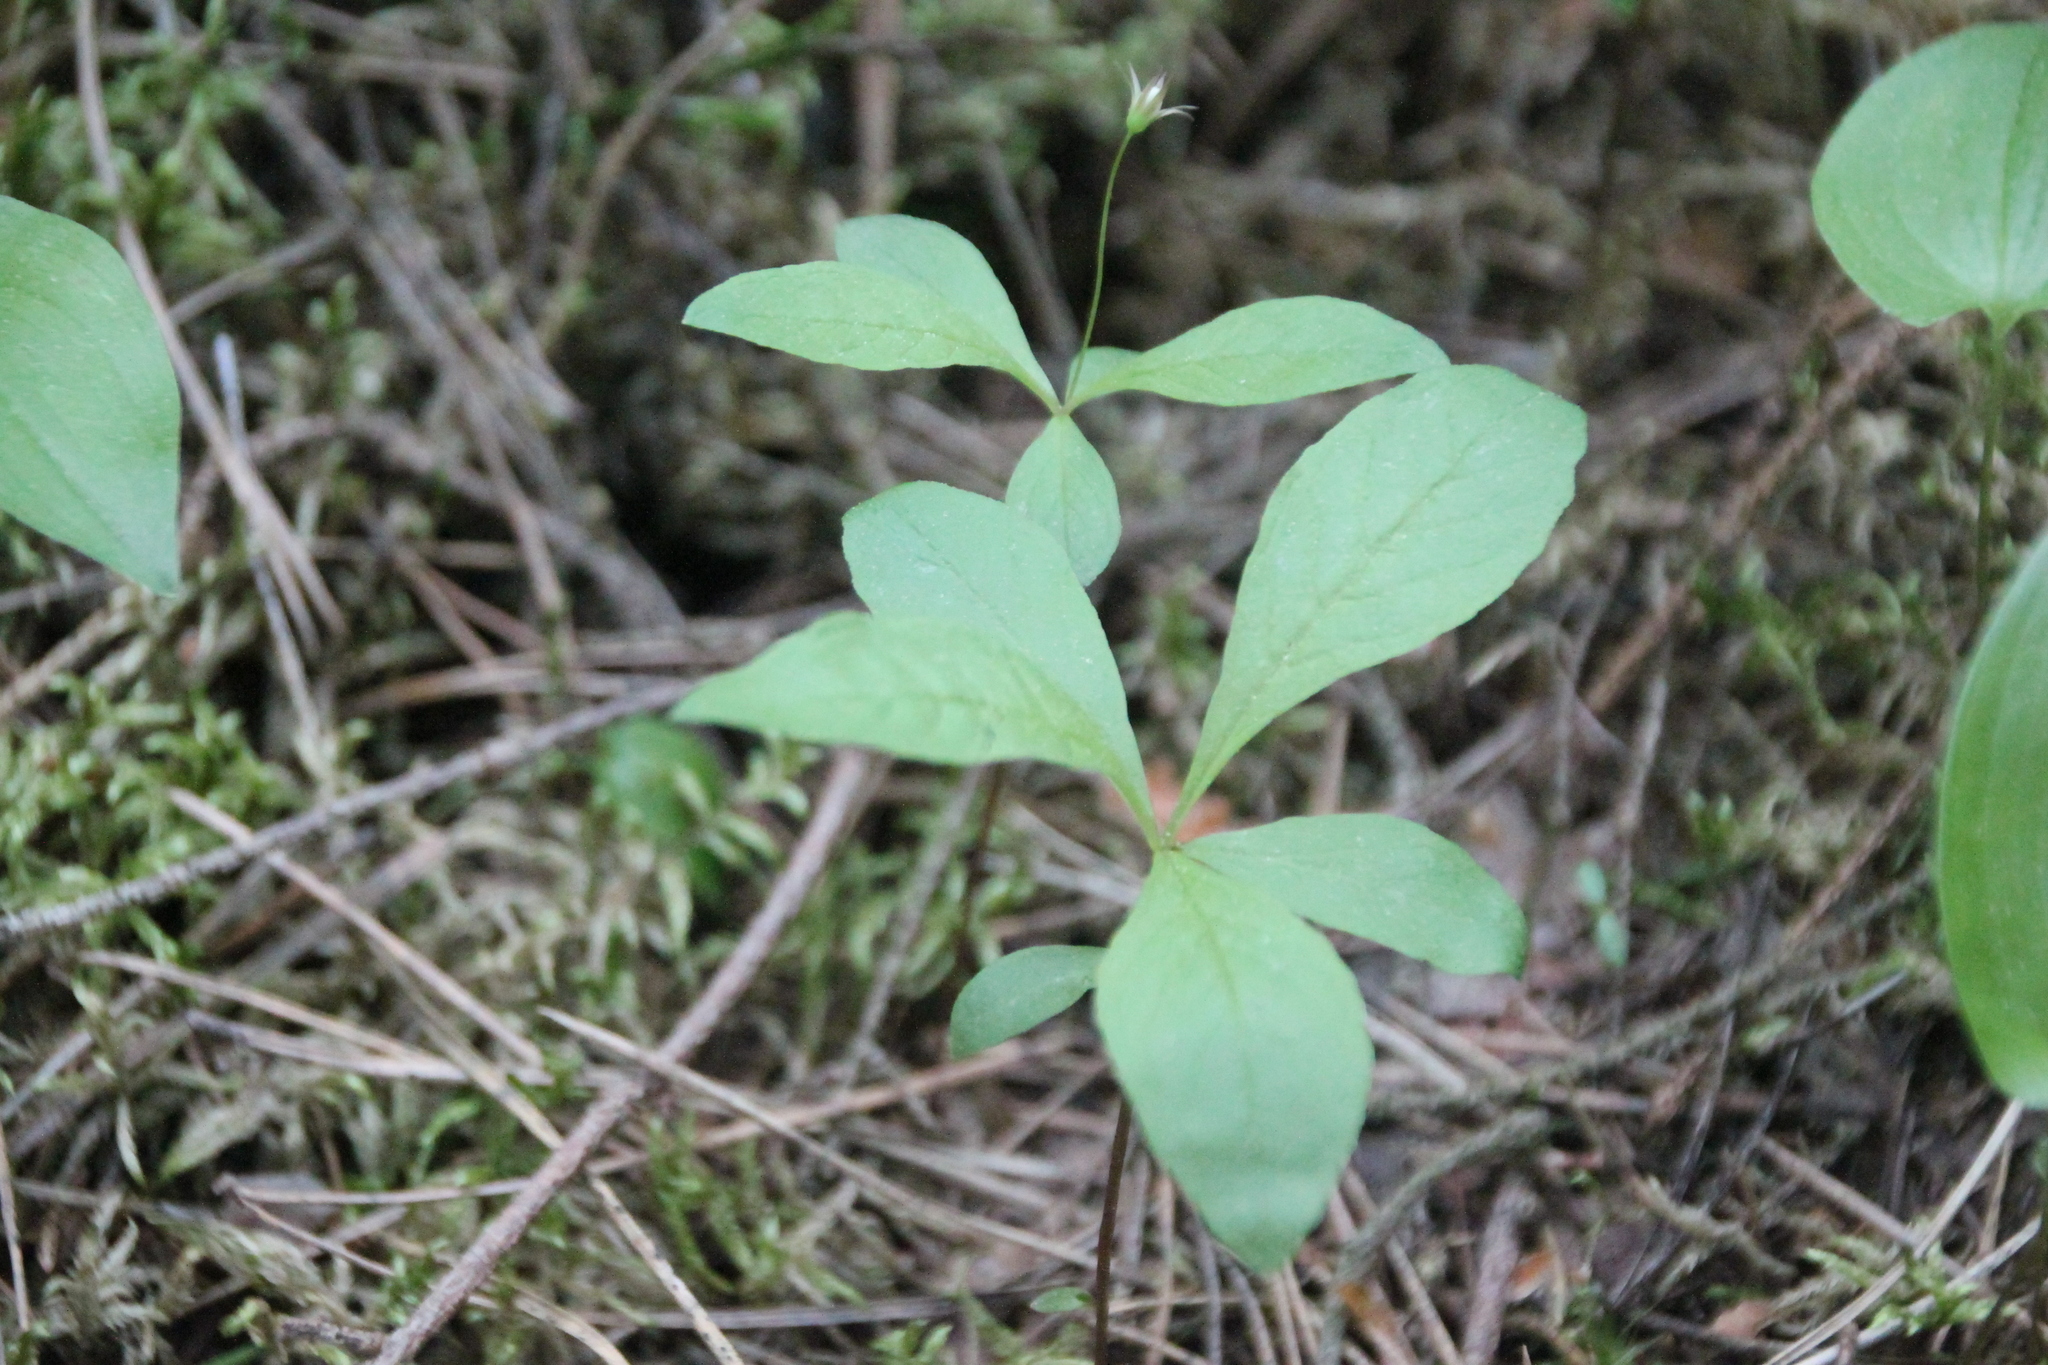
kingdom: Plantae
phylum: Tracheophyta
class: Magnoliopsida
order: Ericales
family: Primulaceae
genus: Lysimachia
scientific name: Lysimachia europaea
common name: Arctic starflower
